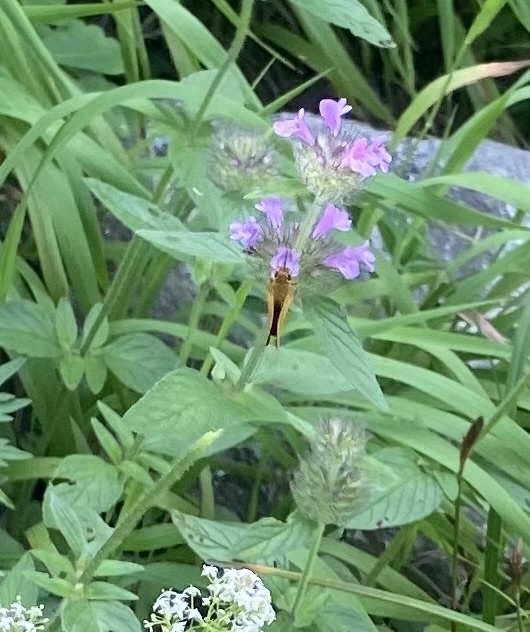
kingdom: Plantae
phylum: Tracheophyta
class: Magnoliopsida
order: Lamiales
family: Lamiaceae
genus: Clinopodium
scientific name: Clinopodium vulgare
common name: Wild basil
